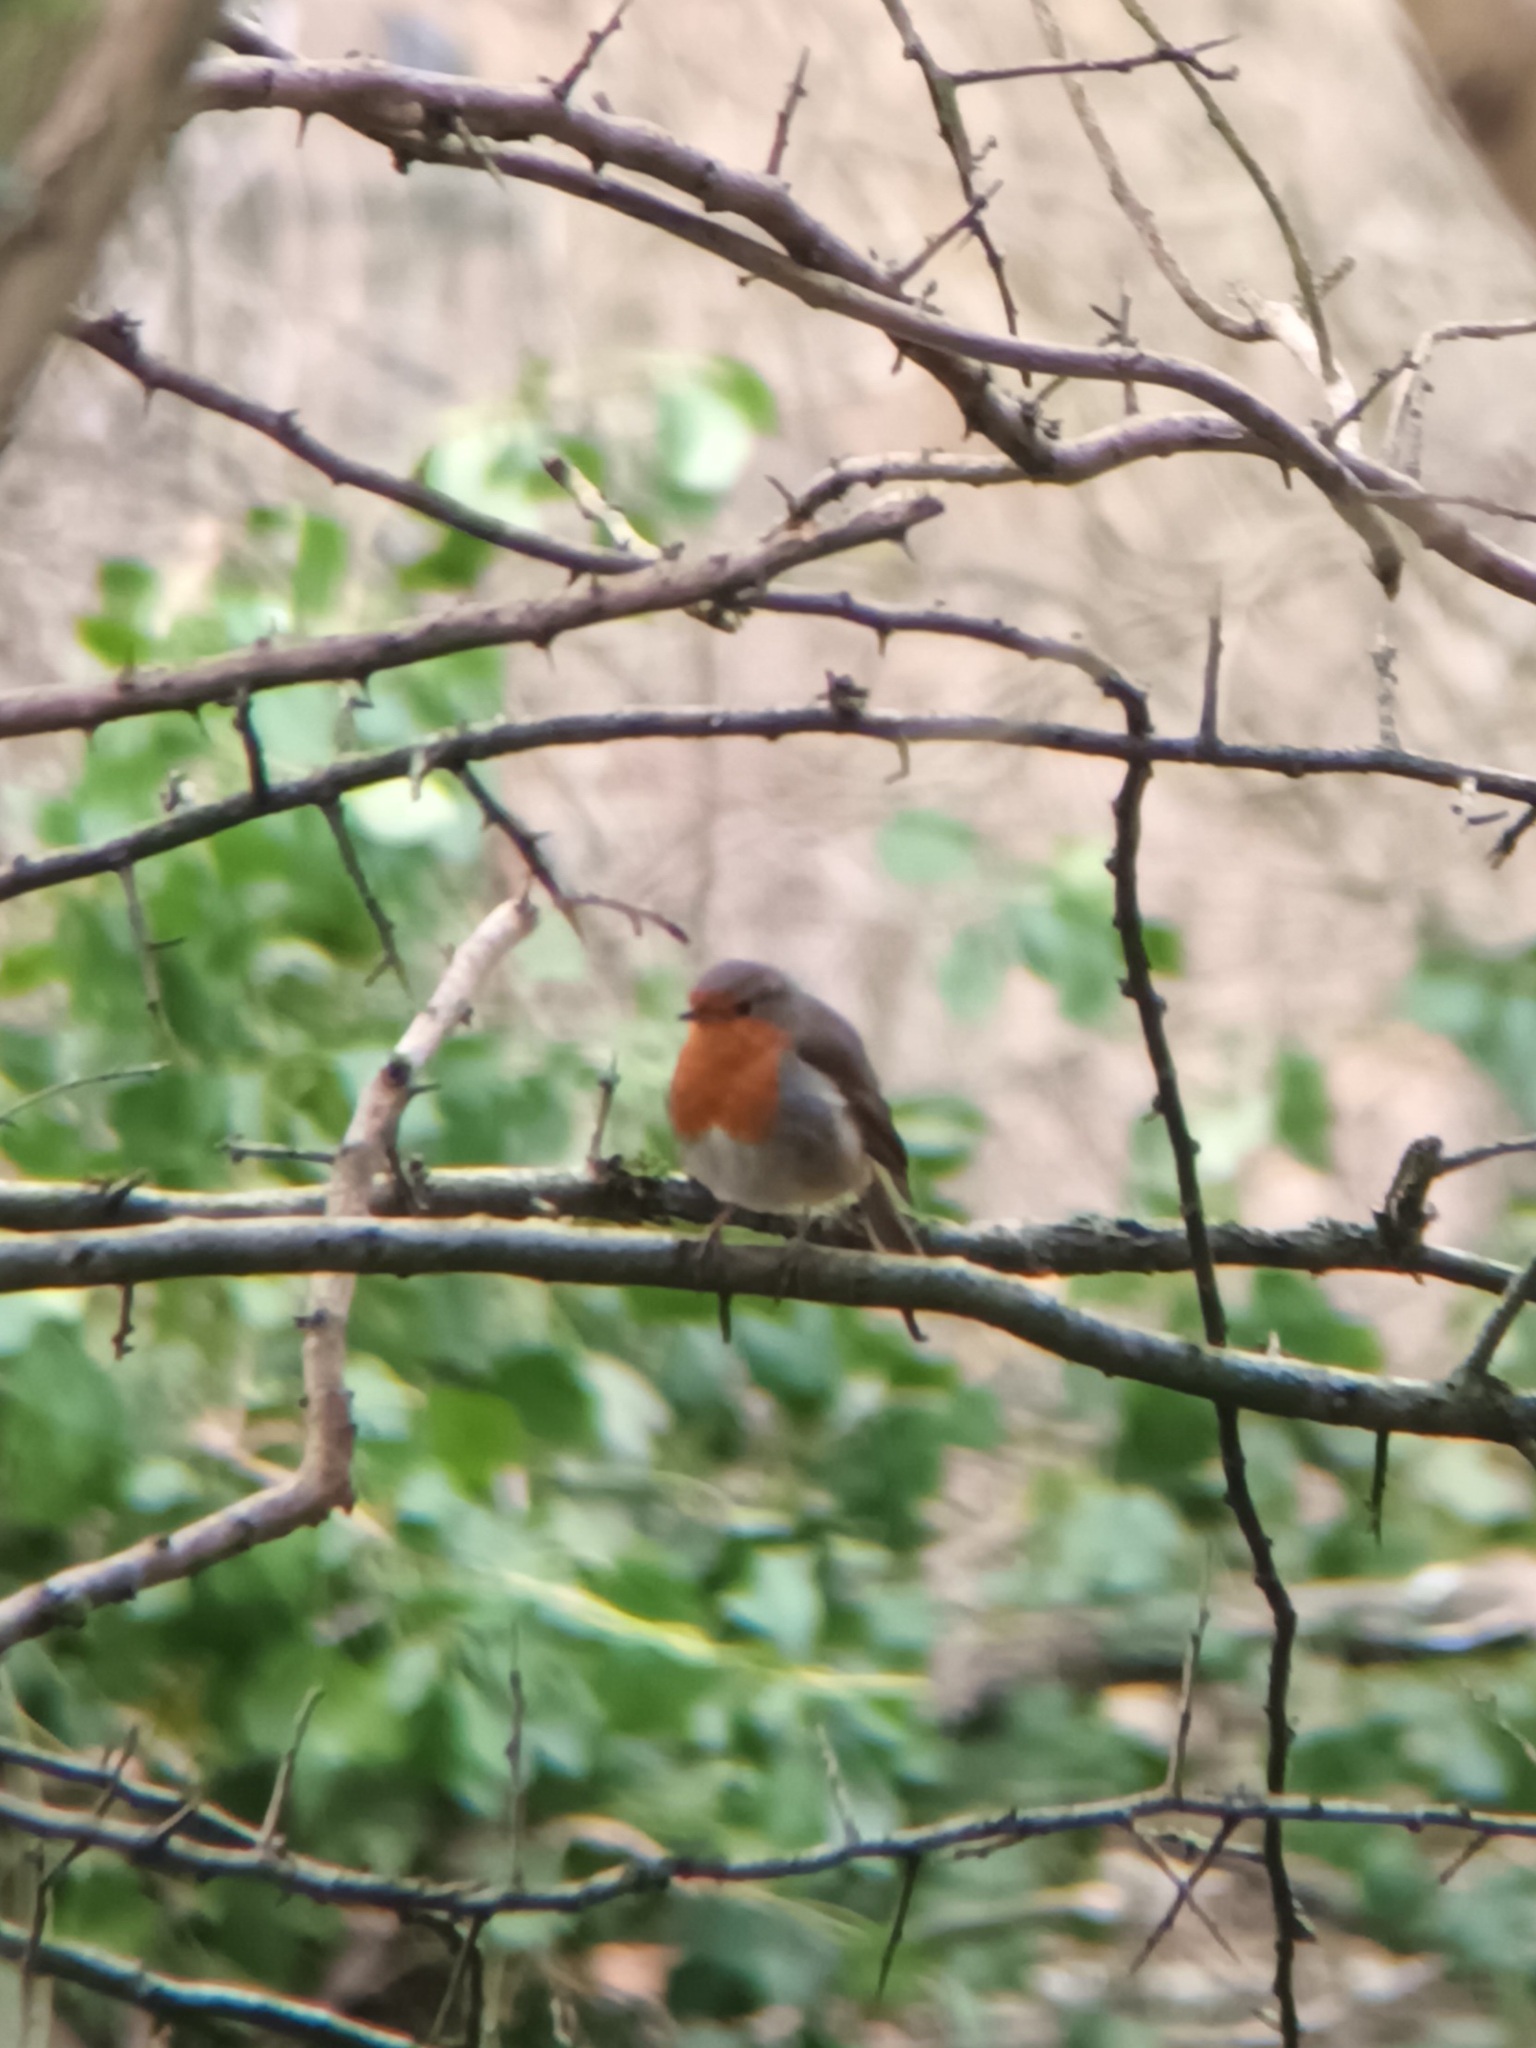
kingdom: Animalia
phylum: Chordata
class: Aves
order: Passeriformes
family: Muscicapidae
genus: Erithacus
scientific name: Erithacus rubecula
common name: European robin
